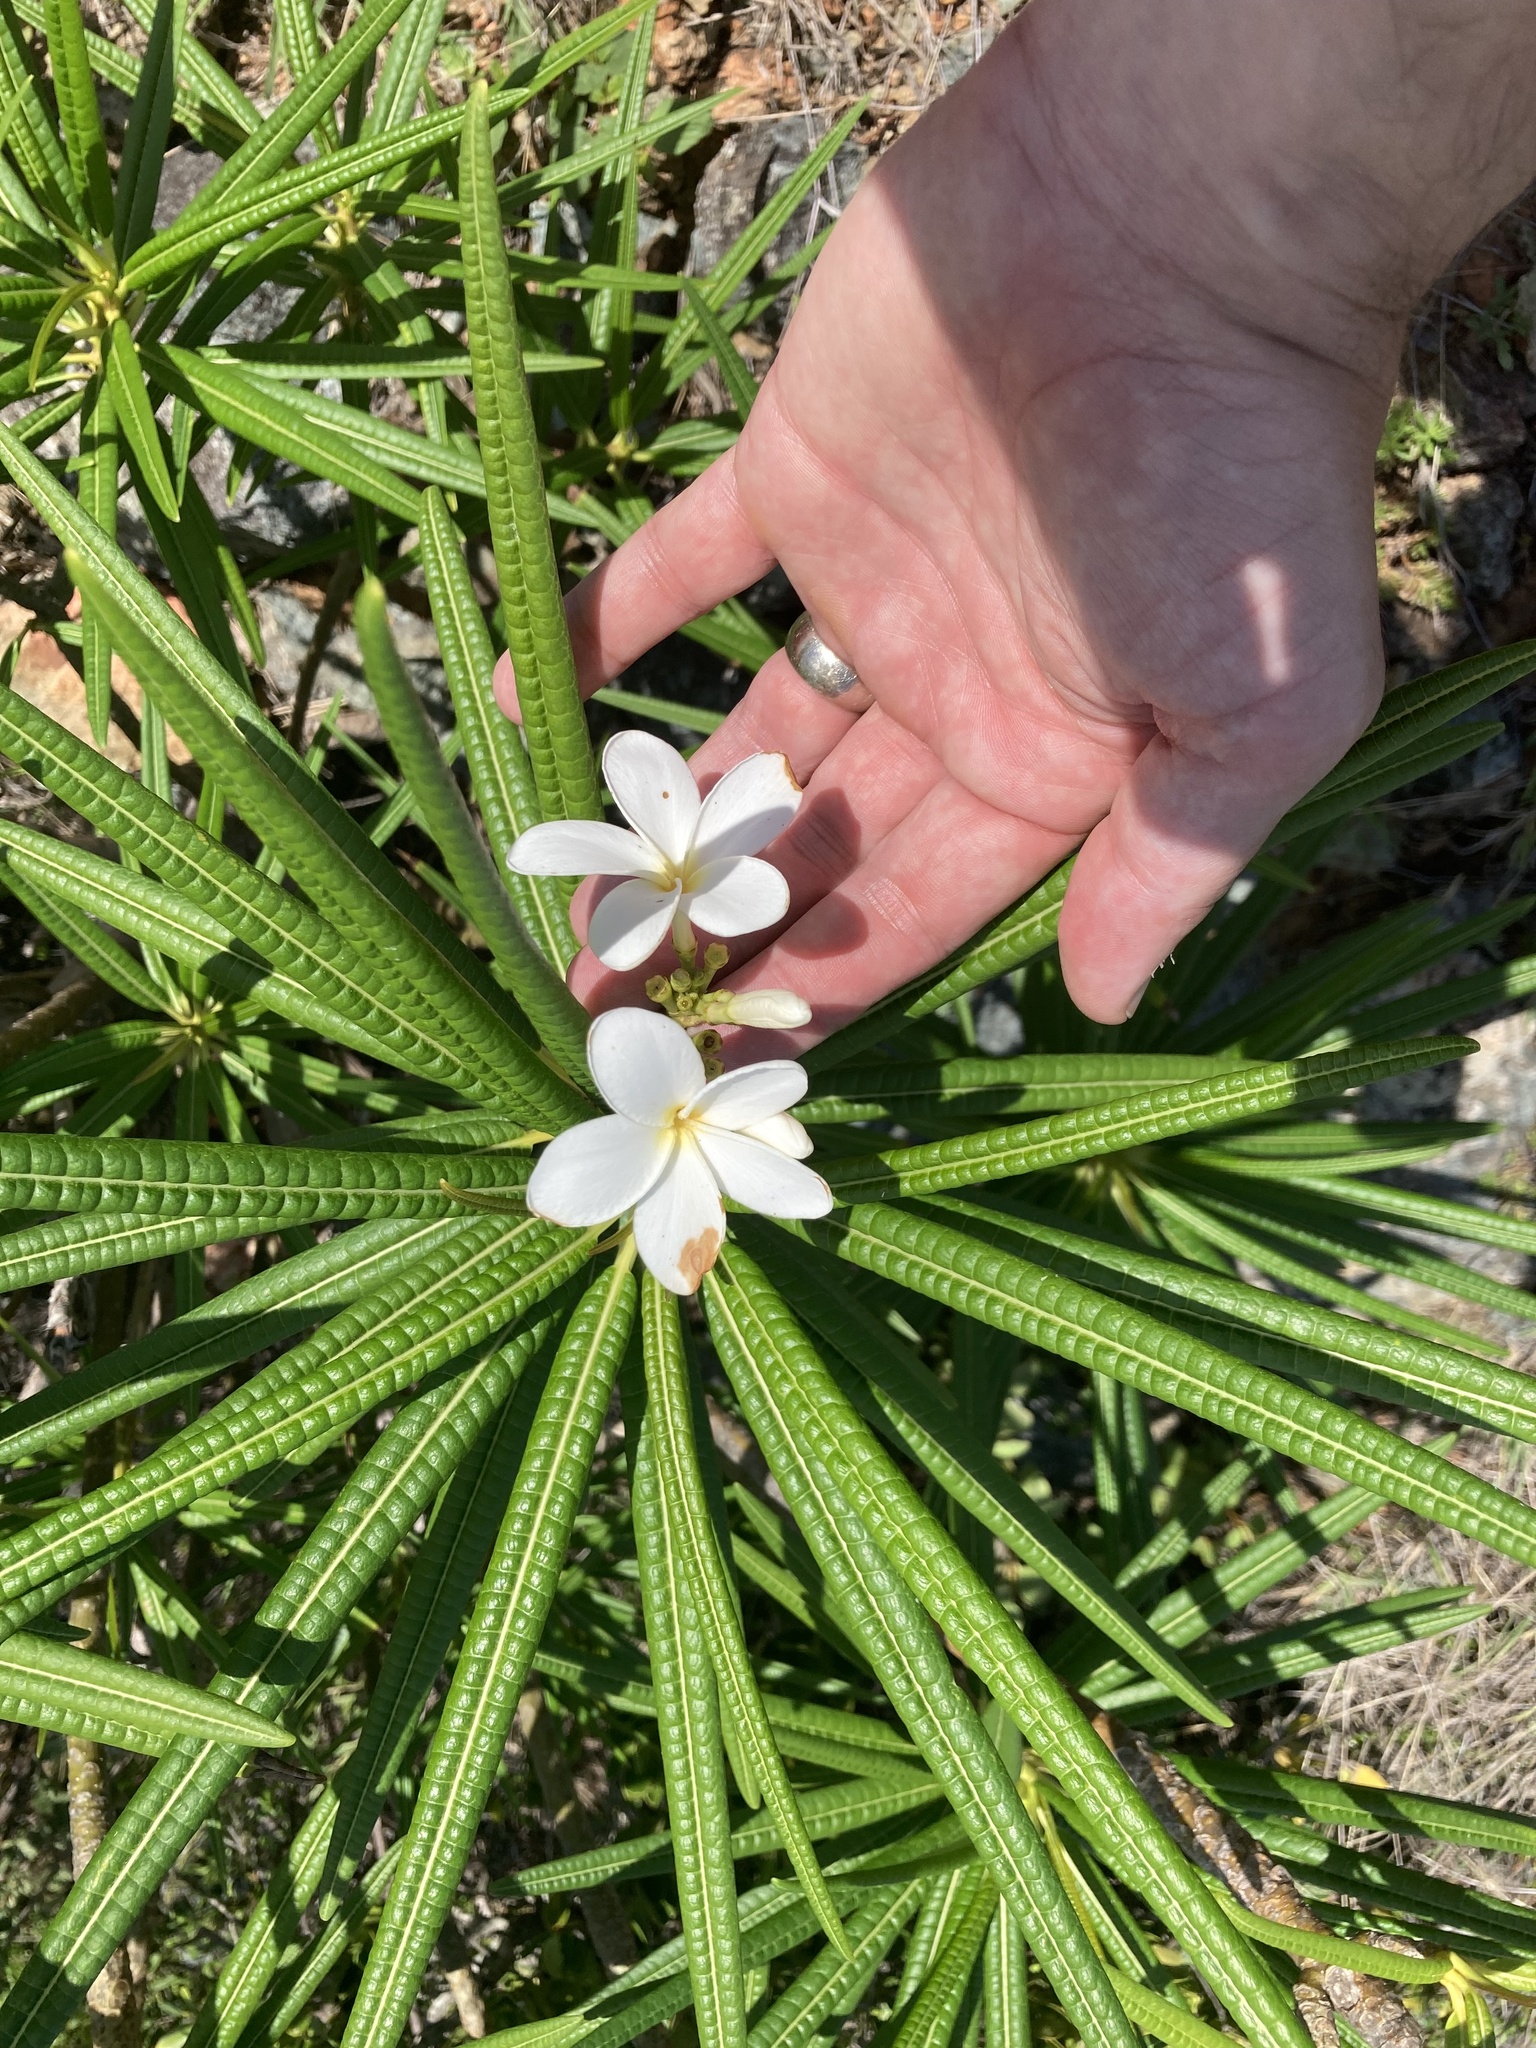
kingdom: Plantae
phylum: Tracheophyta
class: Magnoliopsida
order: Gentianales
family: Apocynaceae
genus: Plumeria
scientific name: Plumeria alba
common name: Wild frangipani
